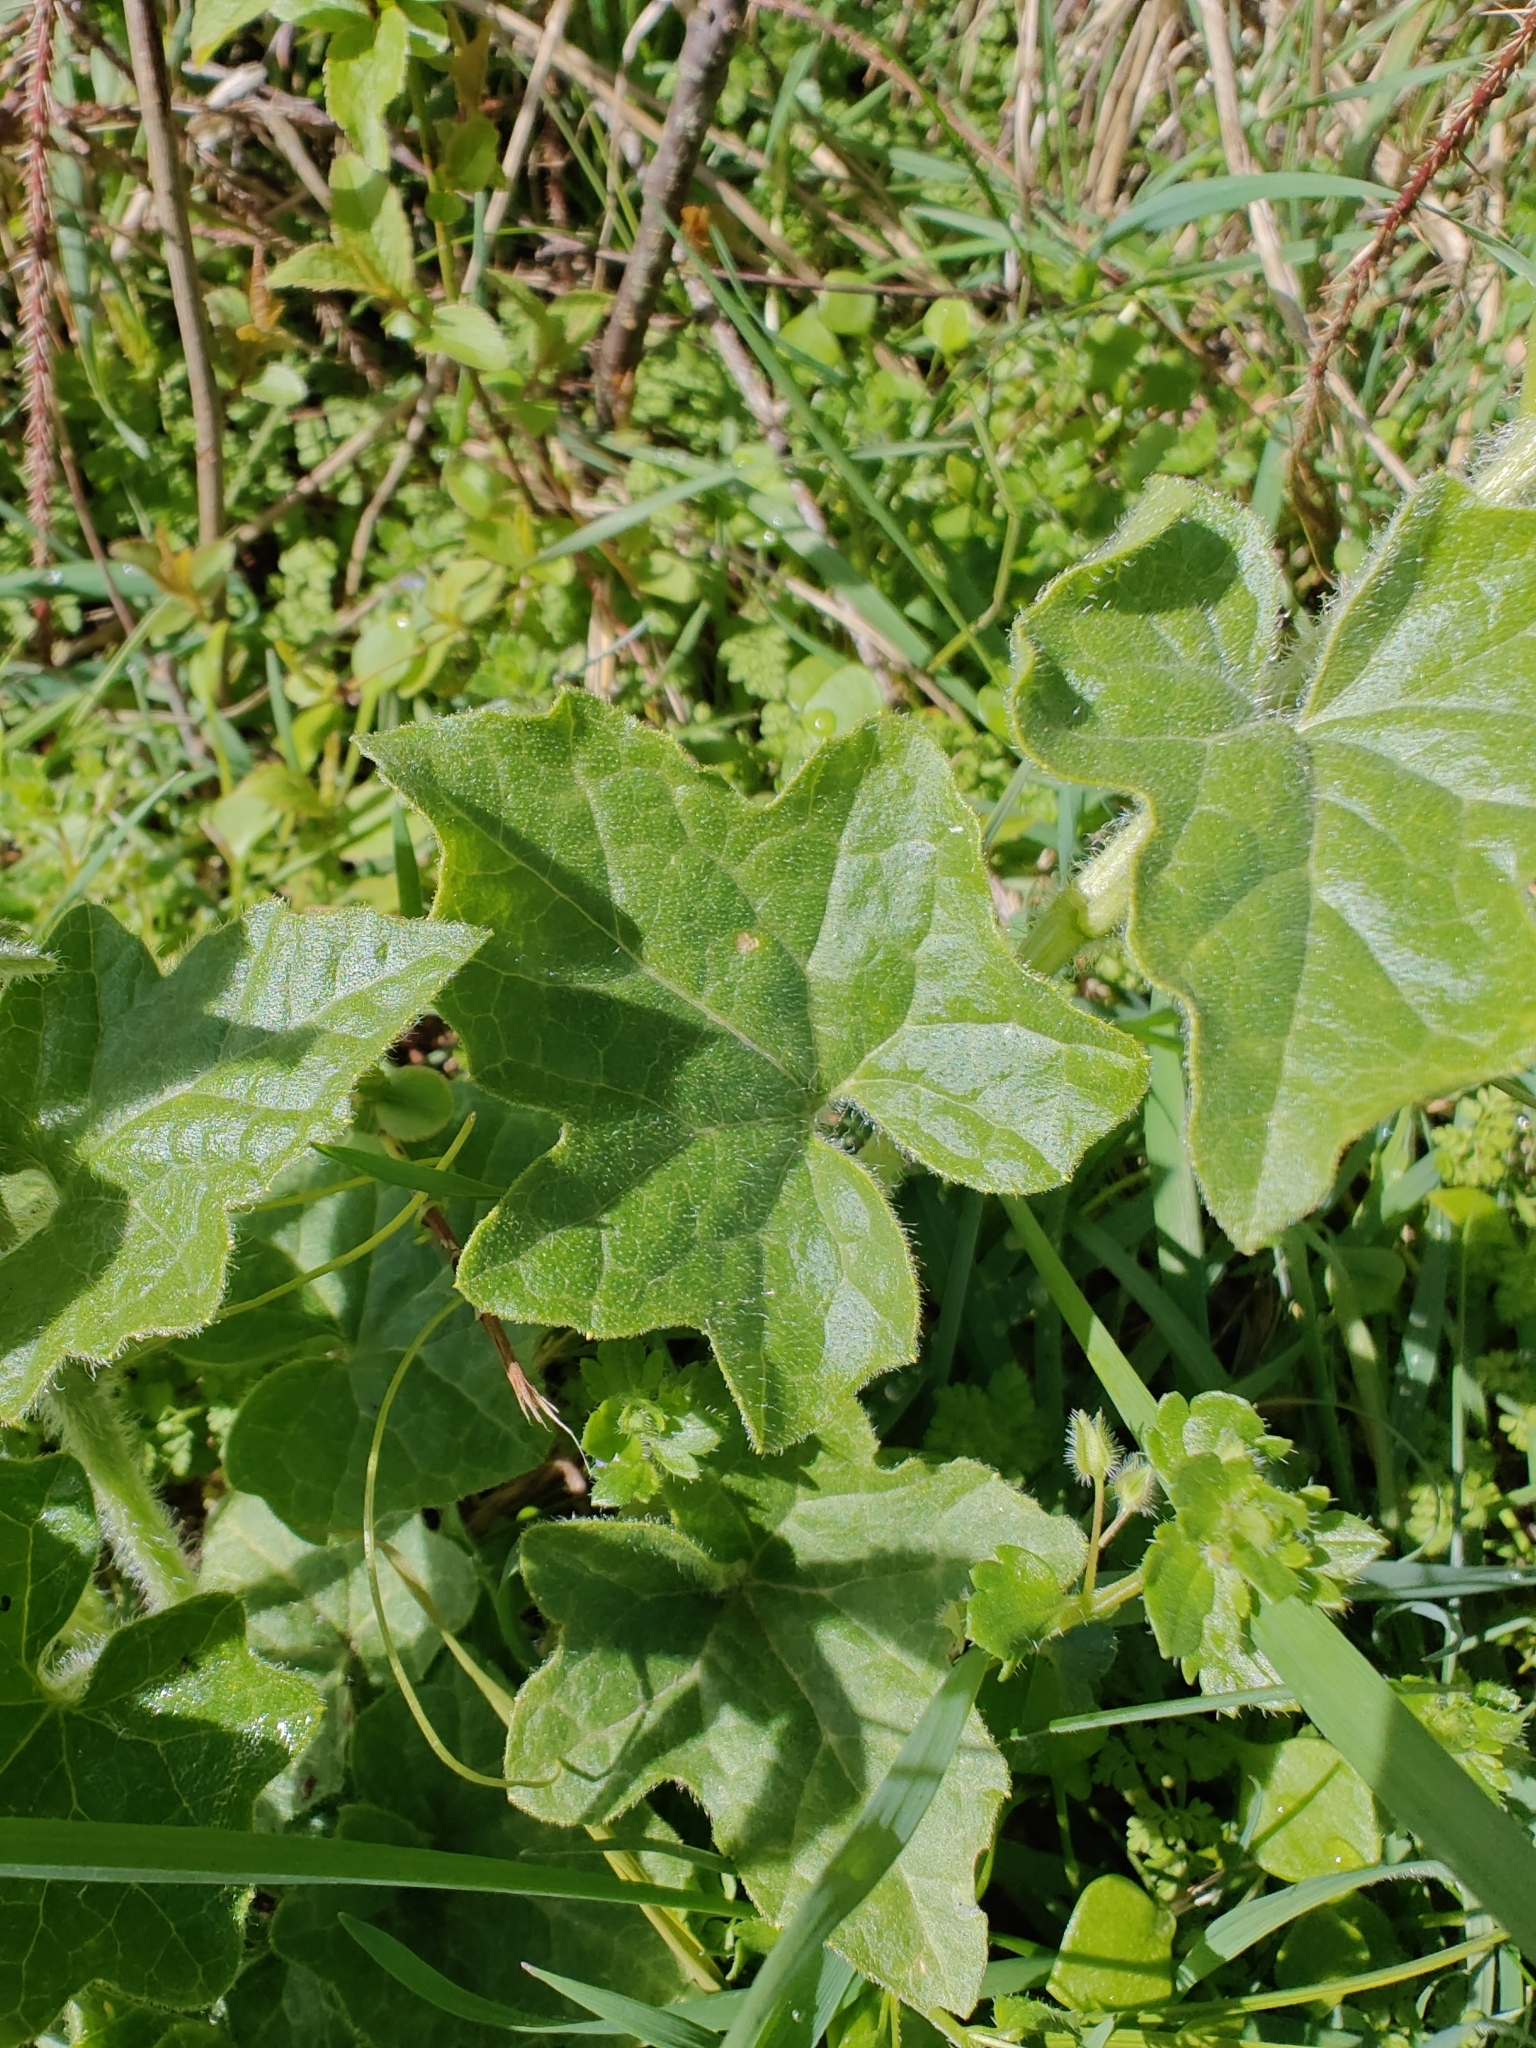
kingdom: Plantae
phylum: Tracheophyta
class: Magnoliopsida
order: Cucurbitales
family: Cucurbitaceae
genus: Bryonia
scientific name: Bryonia cretica
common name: Cretan bryony
